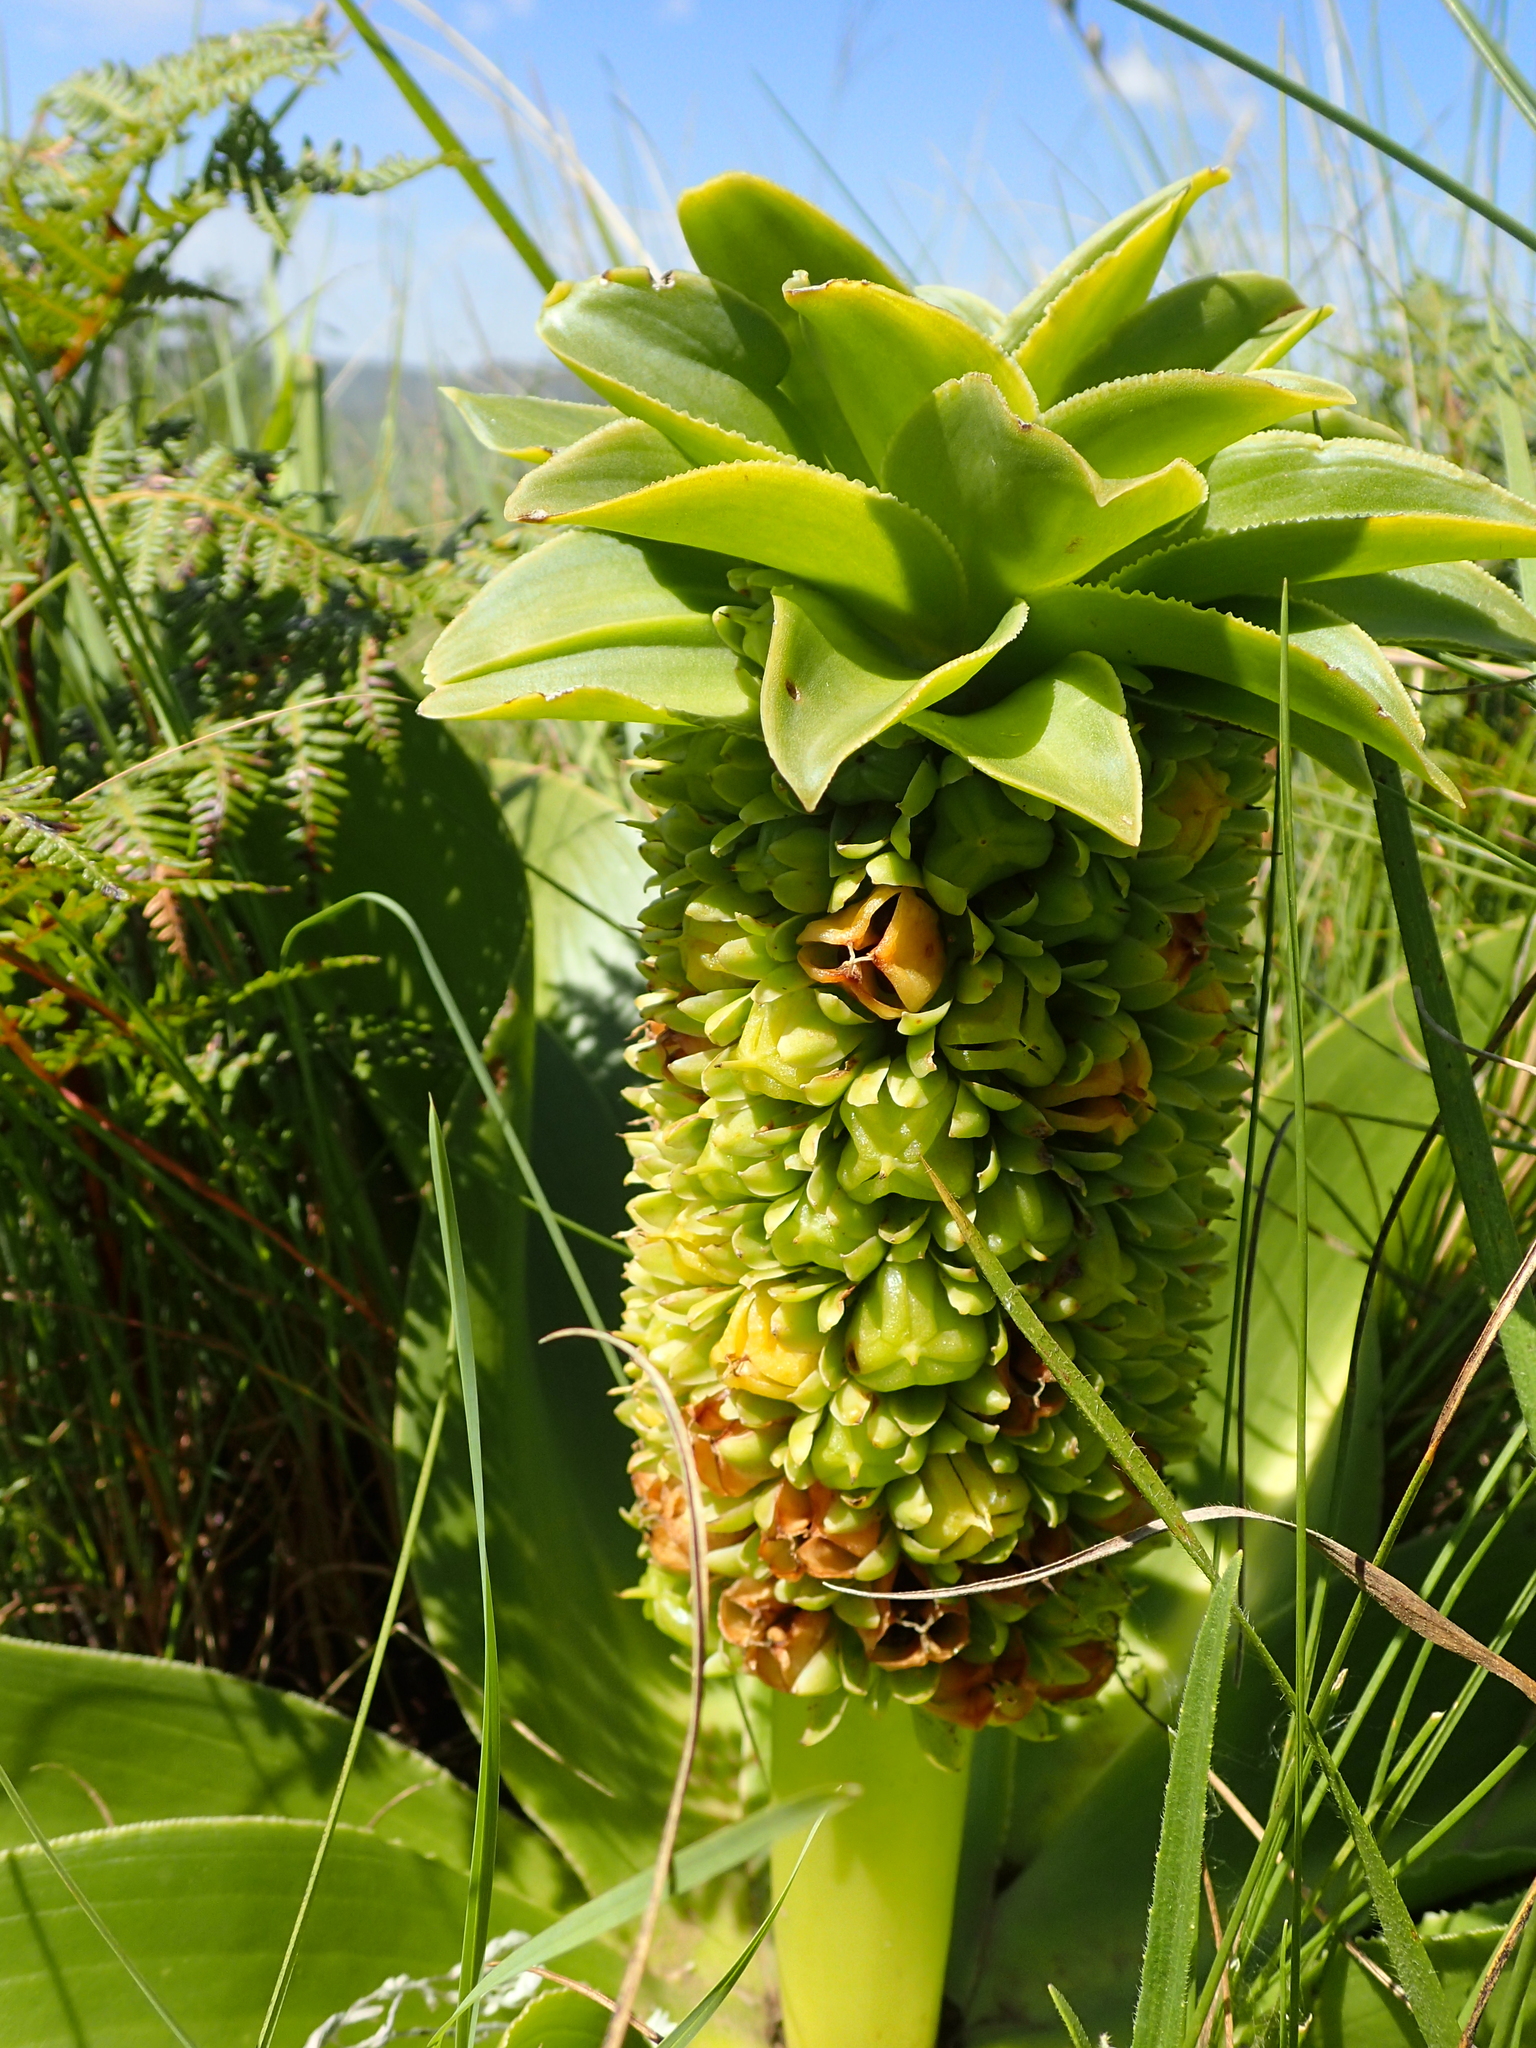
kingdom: Plantae
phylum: Tracheophyta
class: Liliopsida
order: Asparagales
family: Asparagaceae
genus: Eucomis
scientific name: Eucomis autumnalis
